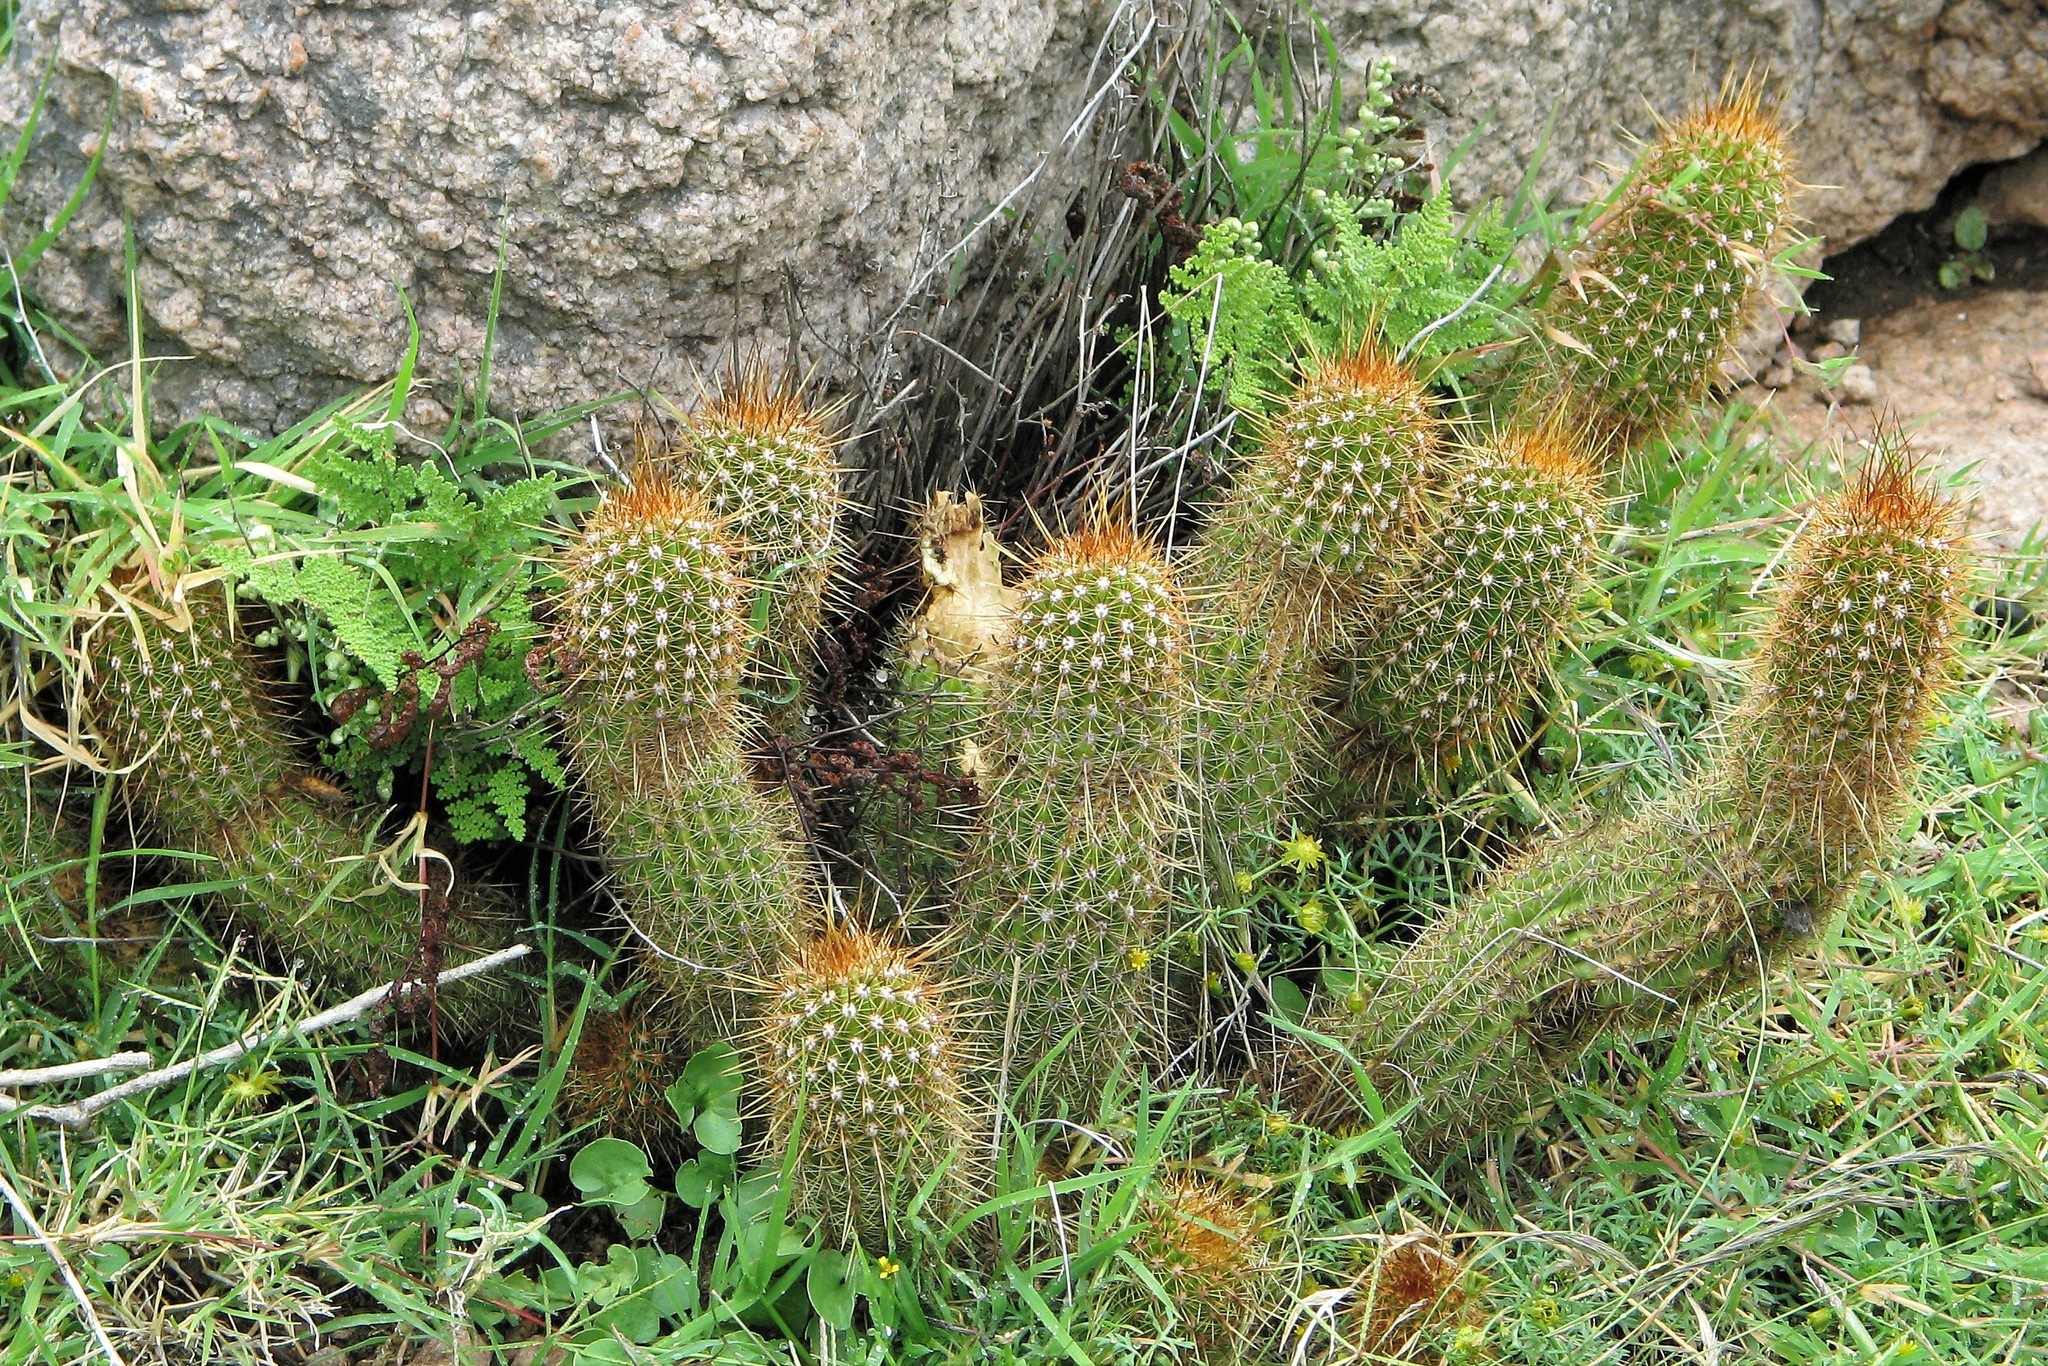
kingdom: Plantae
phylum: Tracheophyta
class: Magnoliopsida
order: Caryophyllales
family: Cactaceae
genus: Soehrensia
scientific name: Soehrensia strigosa
